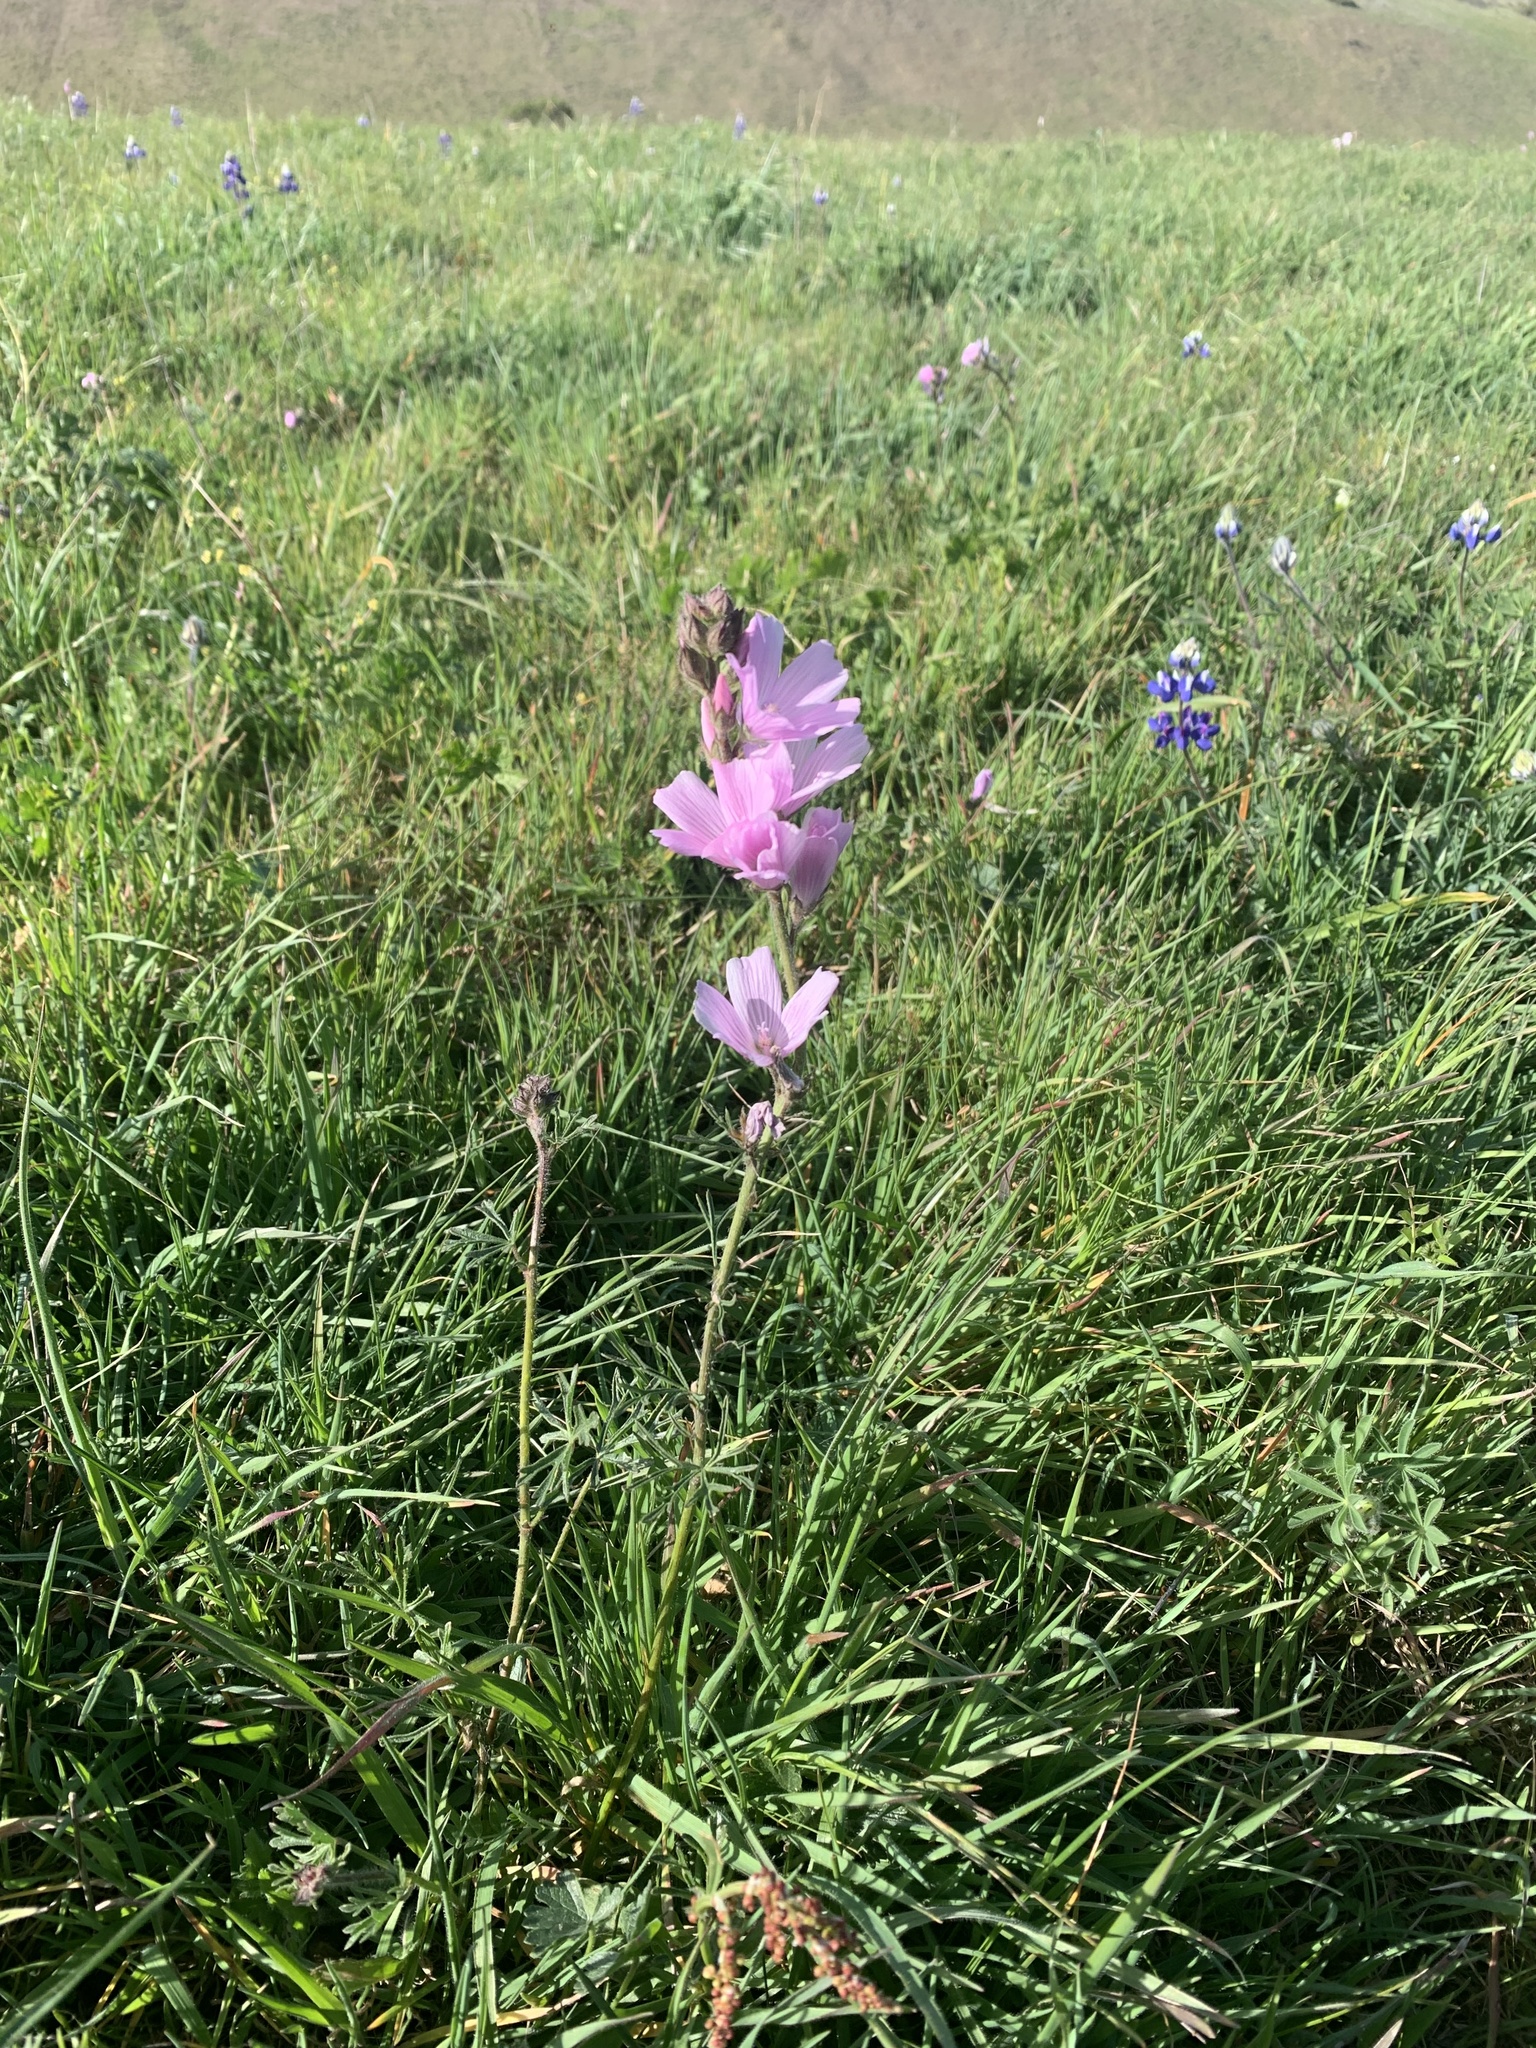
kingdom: Plantae
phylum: Tracheophyta
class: Magnoliopsida
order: Malvales
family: Malvaceae
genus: Sidalcea
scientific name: Sidalcea malviflora
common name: Greek mallow
